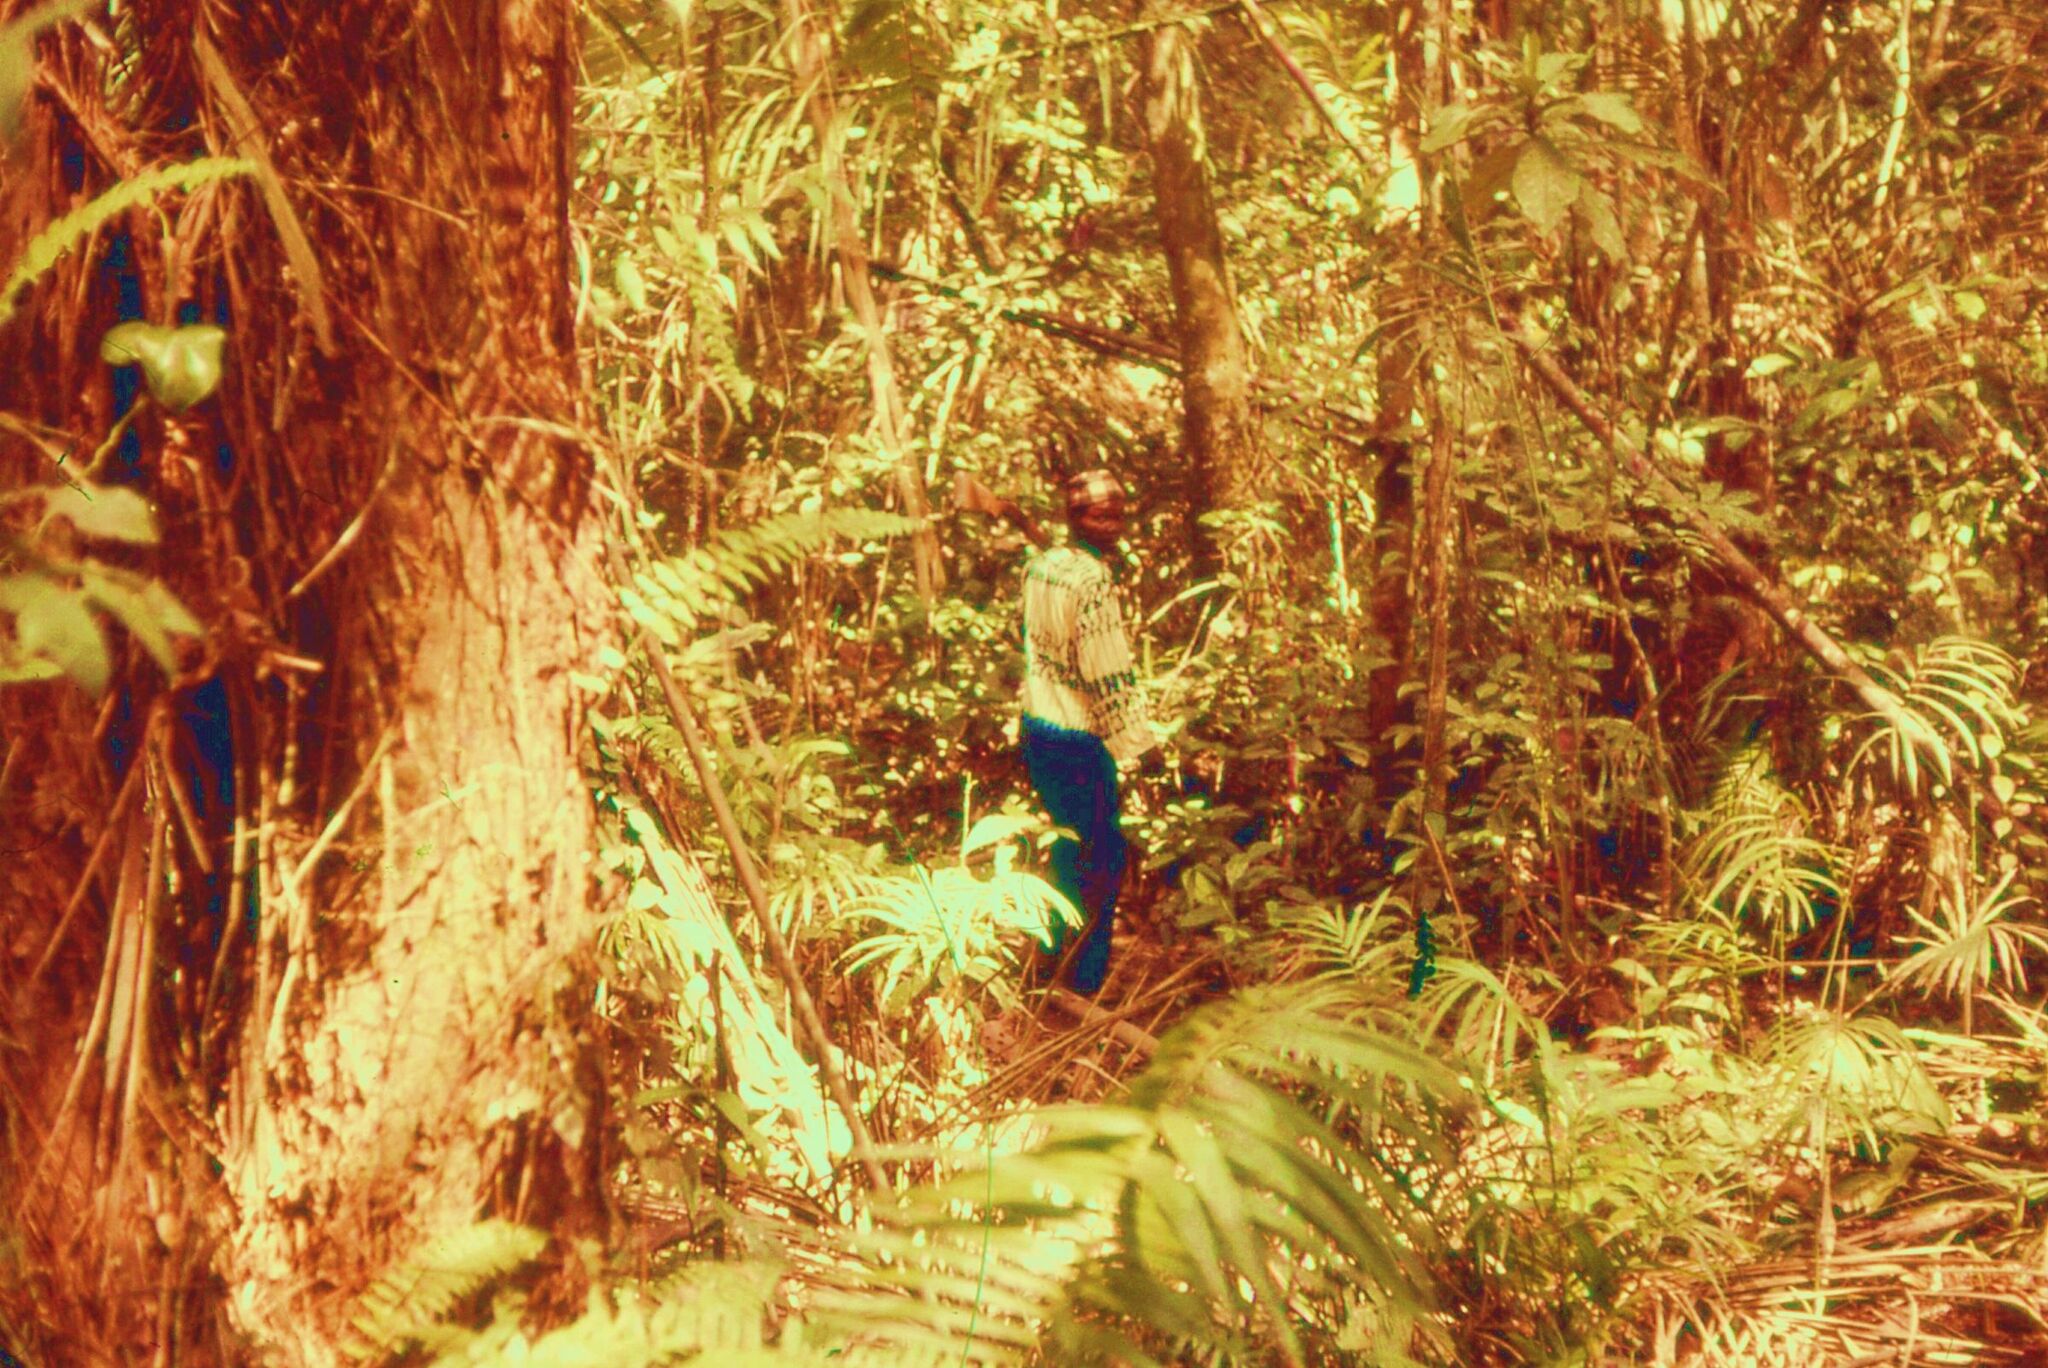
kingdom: Animalia
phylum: Chordata
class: Mammalia
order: Artiodactyla
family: Bovidae
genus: Philantomba
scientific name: Philantomba maxwellii
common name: Maxwell's duiker
